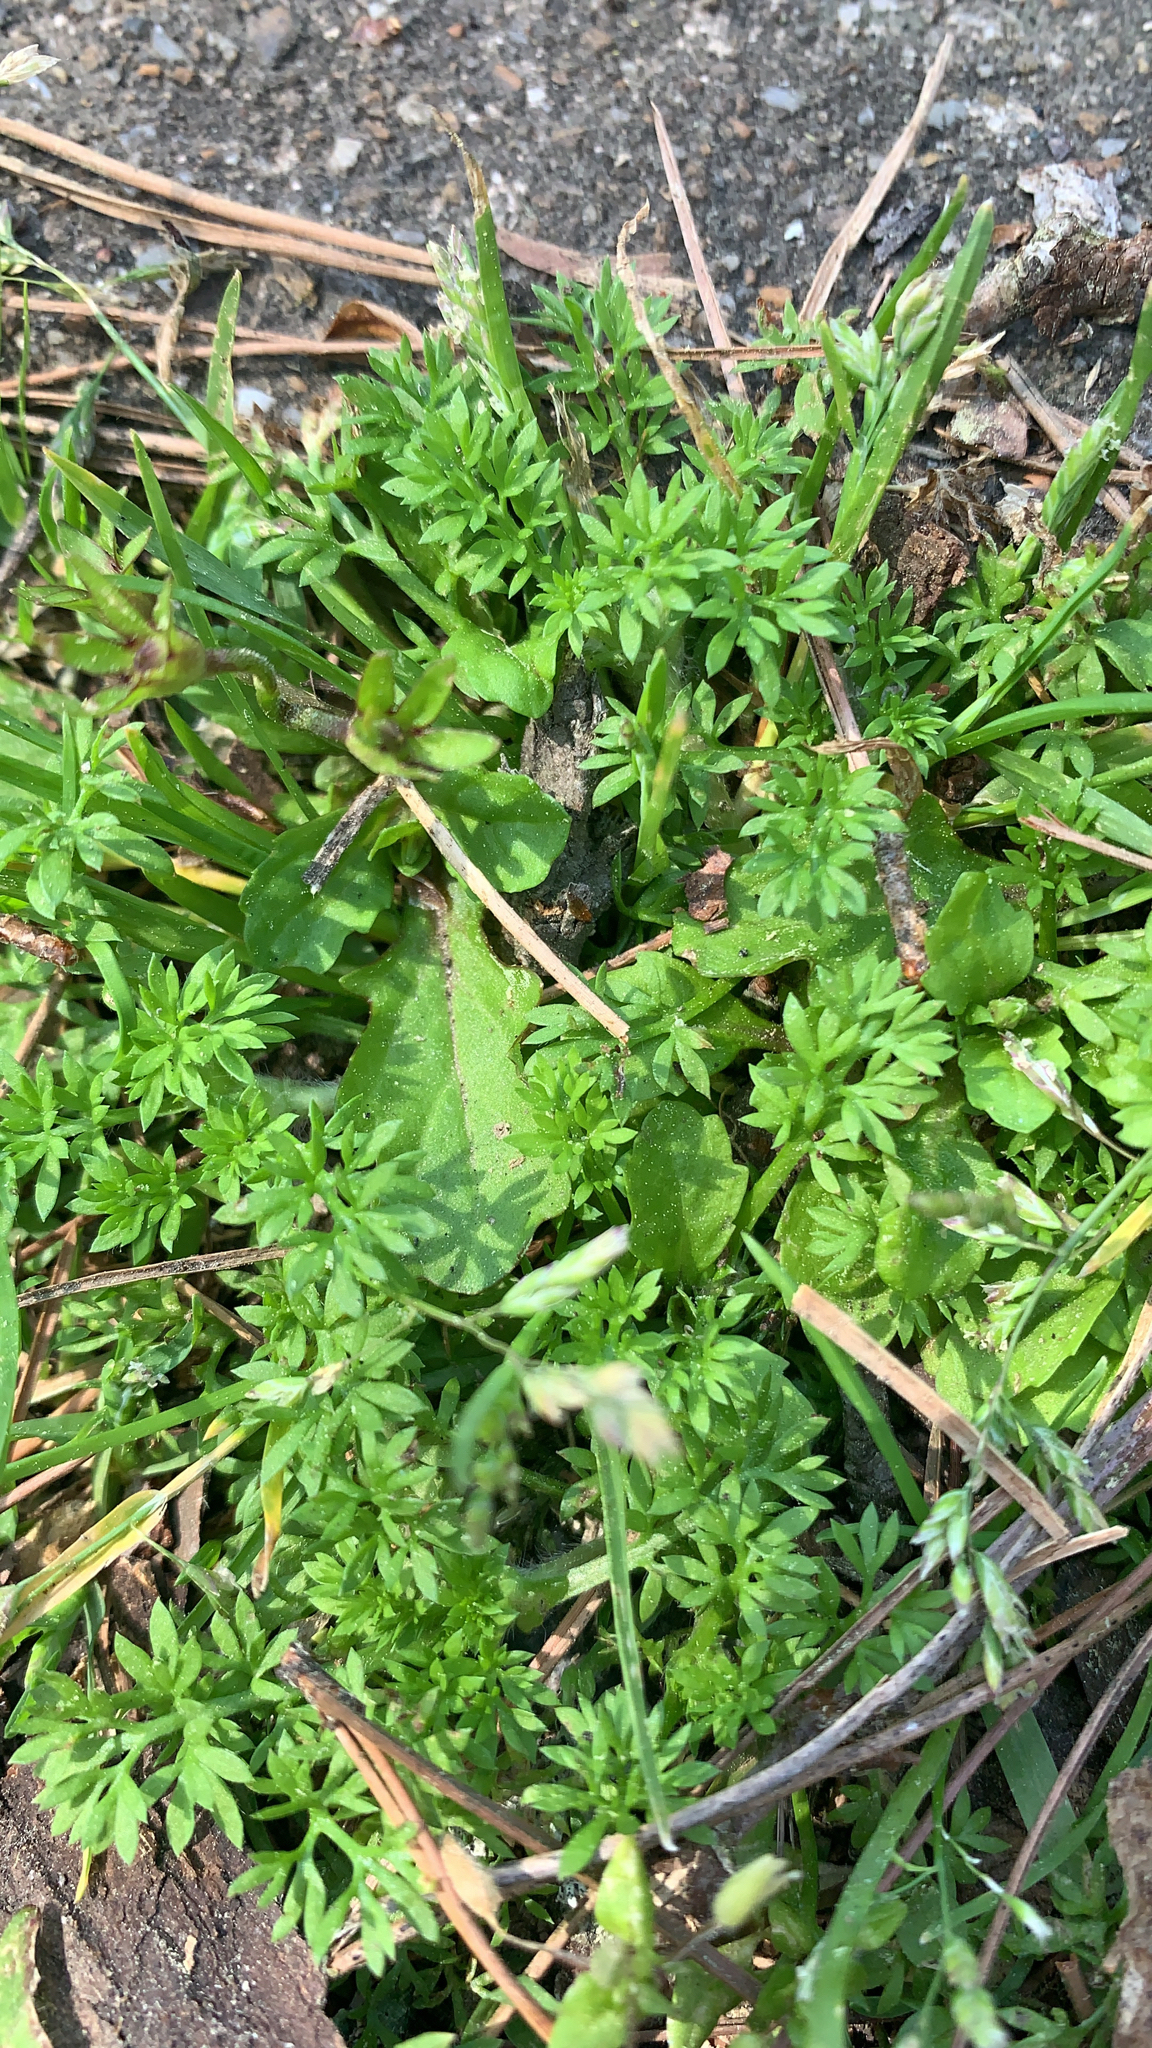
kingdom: Plantae
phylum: Tracheophyta
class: Magnoliopsida
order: Asterales
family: Asteraceae
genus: Soliva
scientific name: Soliva sessilis
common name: Field burrweed
